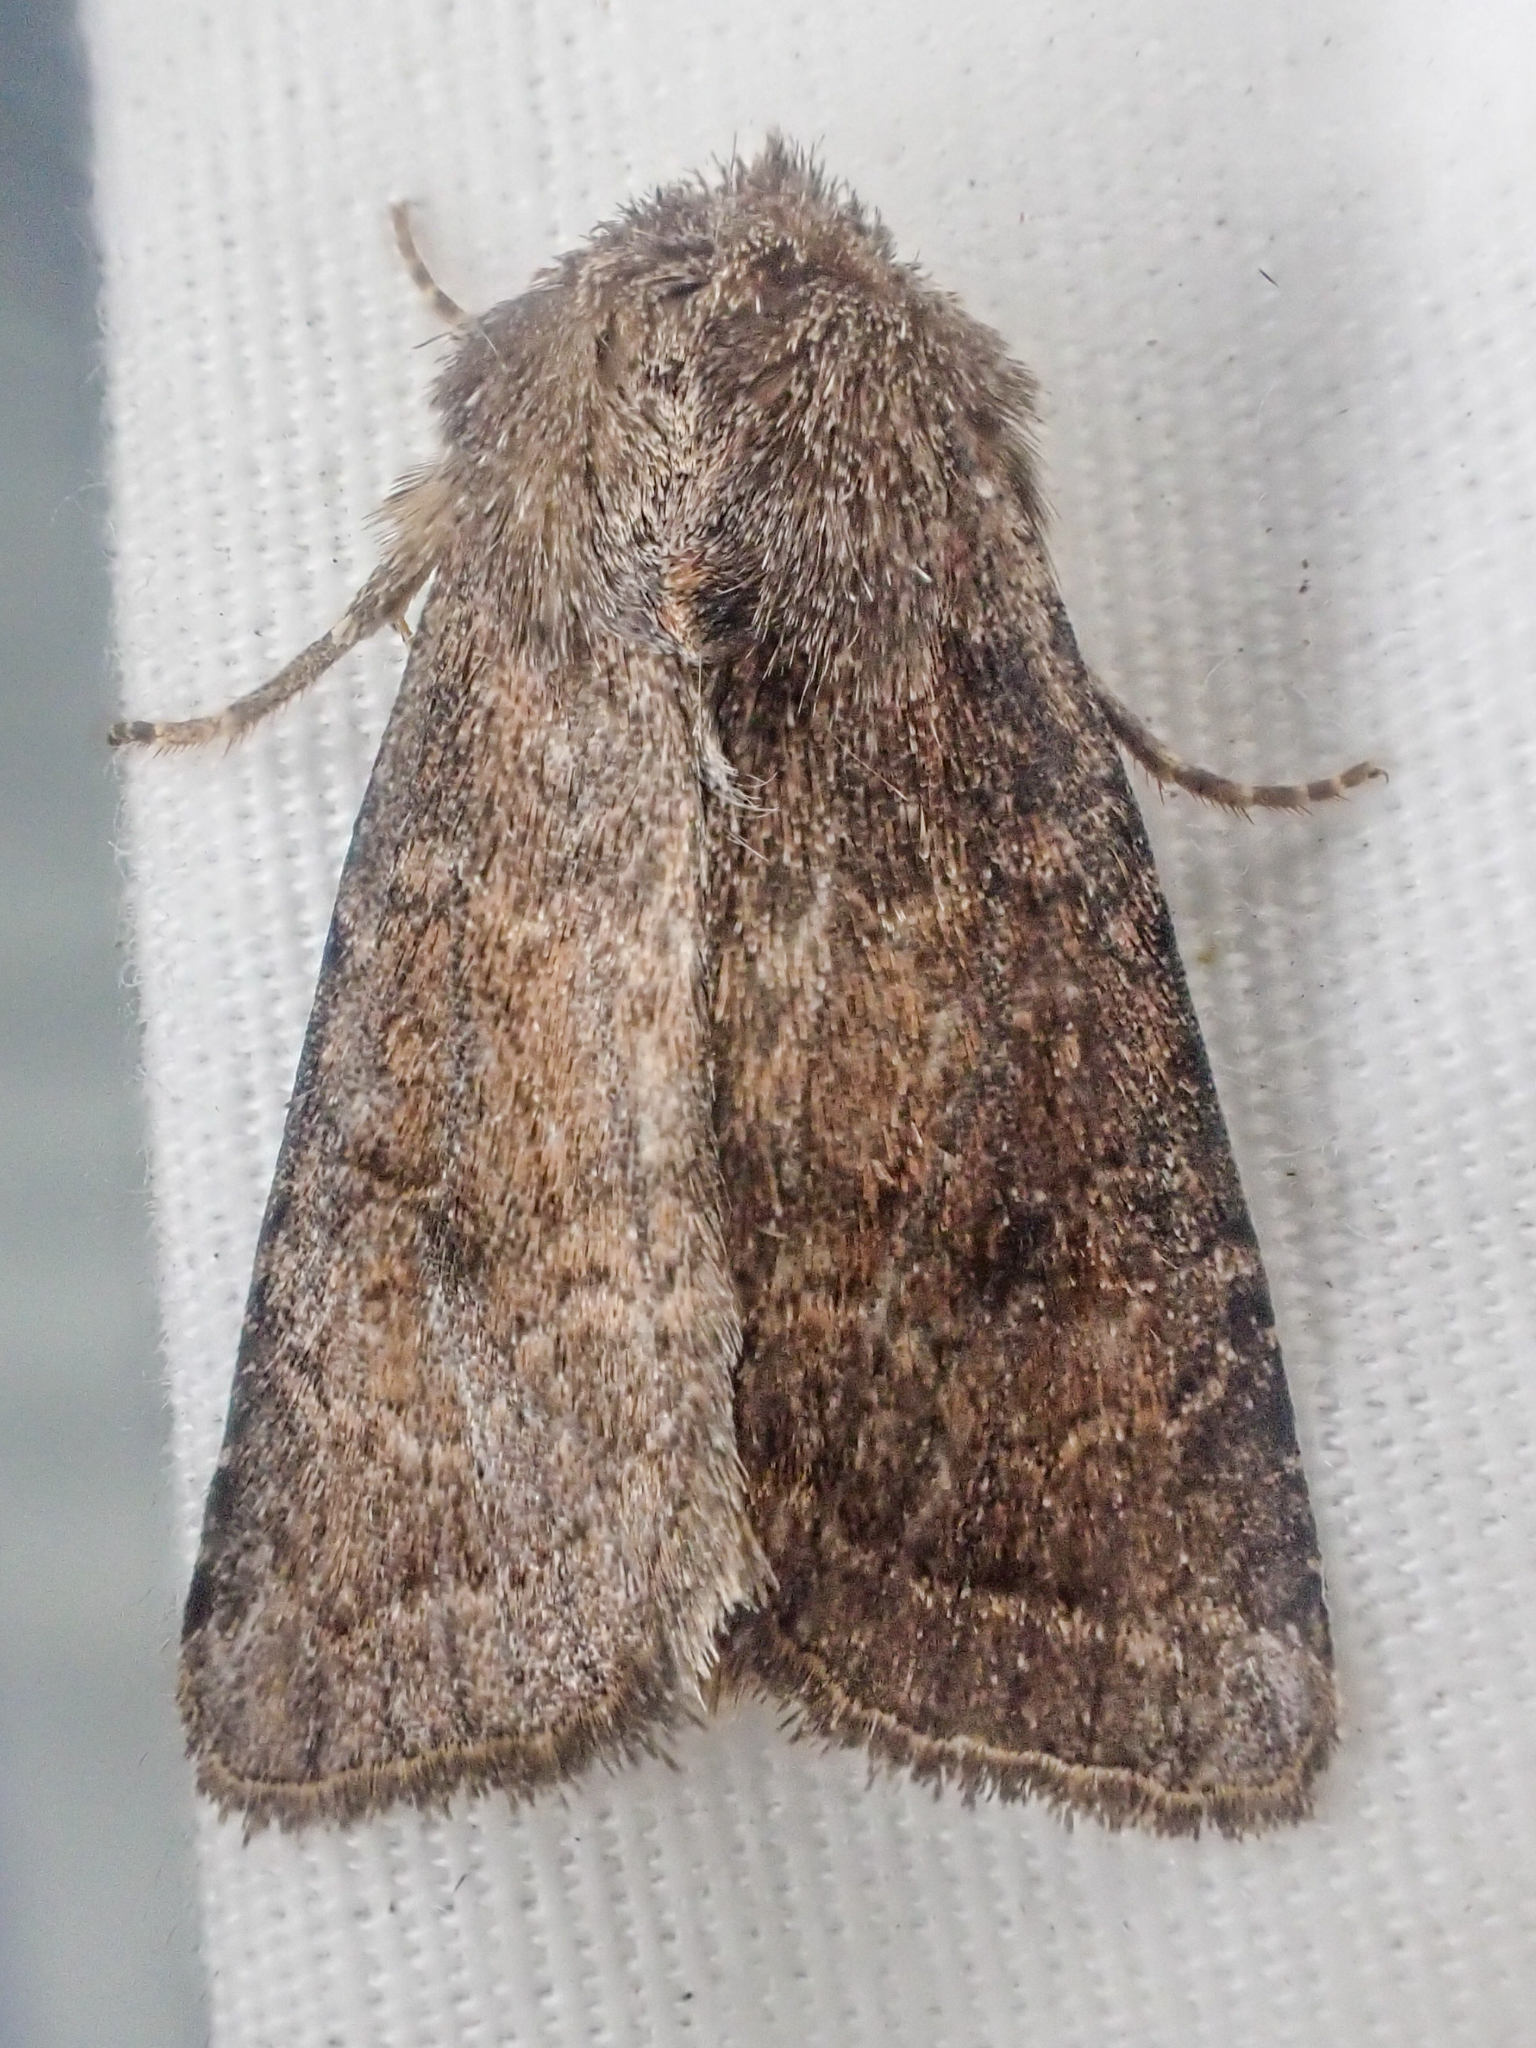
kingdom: Animalia
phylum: Arthropoda
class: Insecta
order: Lepidoptera
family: Noctuidae
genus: Trichopolia
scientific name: Trichopolia
